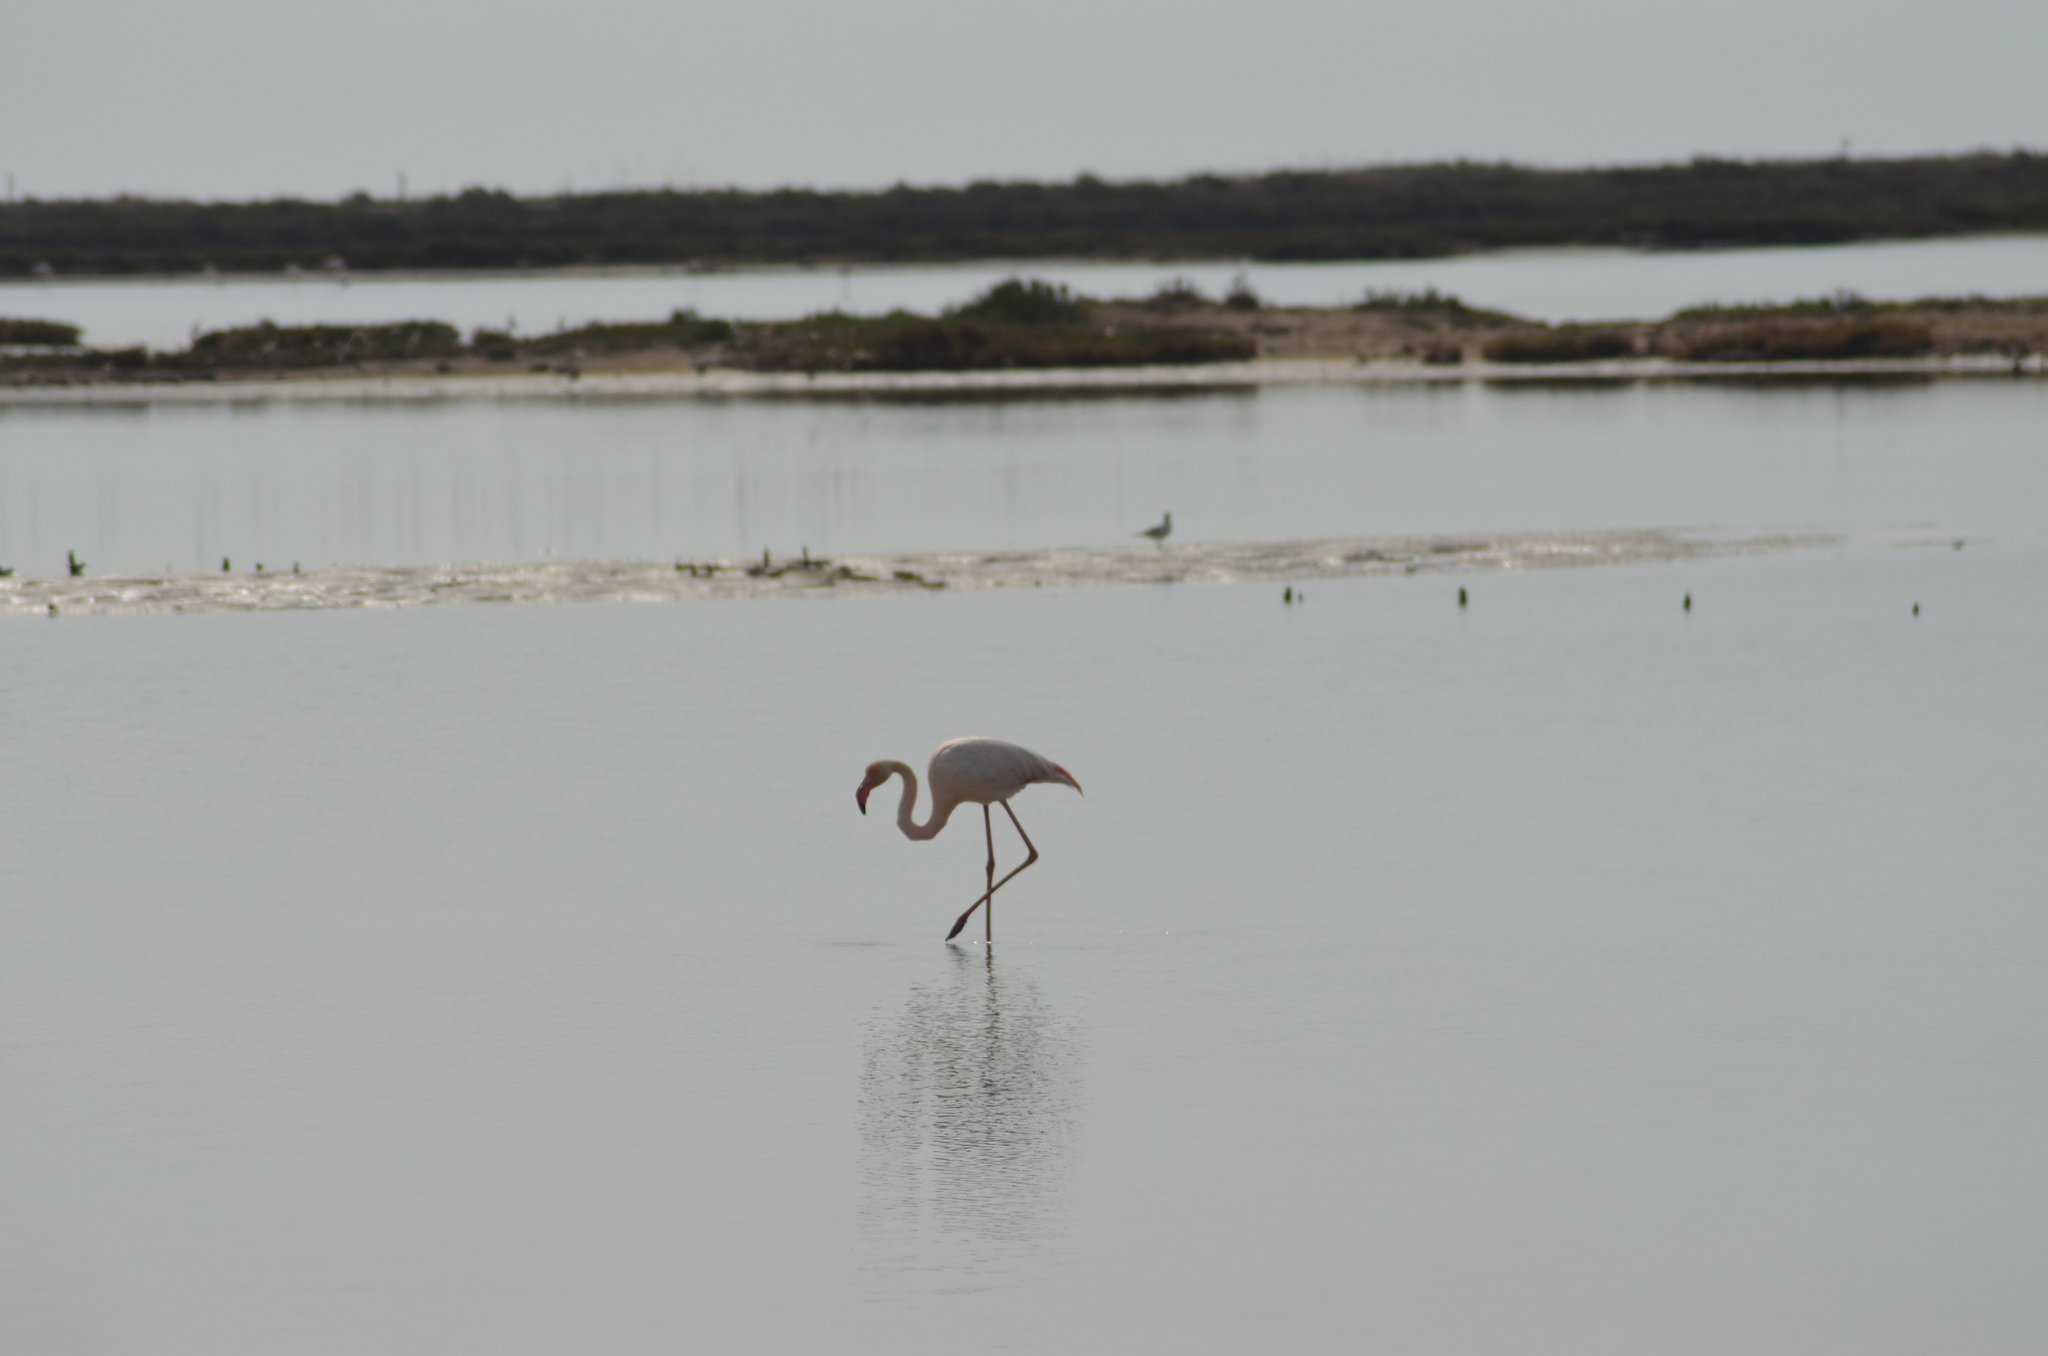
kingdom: Animalia
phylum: Chordata
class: Aves
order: Phoenicopteriformes
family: Phoenicopteridae
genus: Phoenicopterus
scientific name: Phoenicopterus roseus
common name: Greater flamingo
